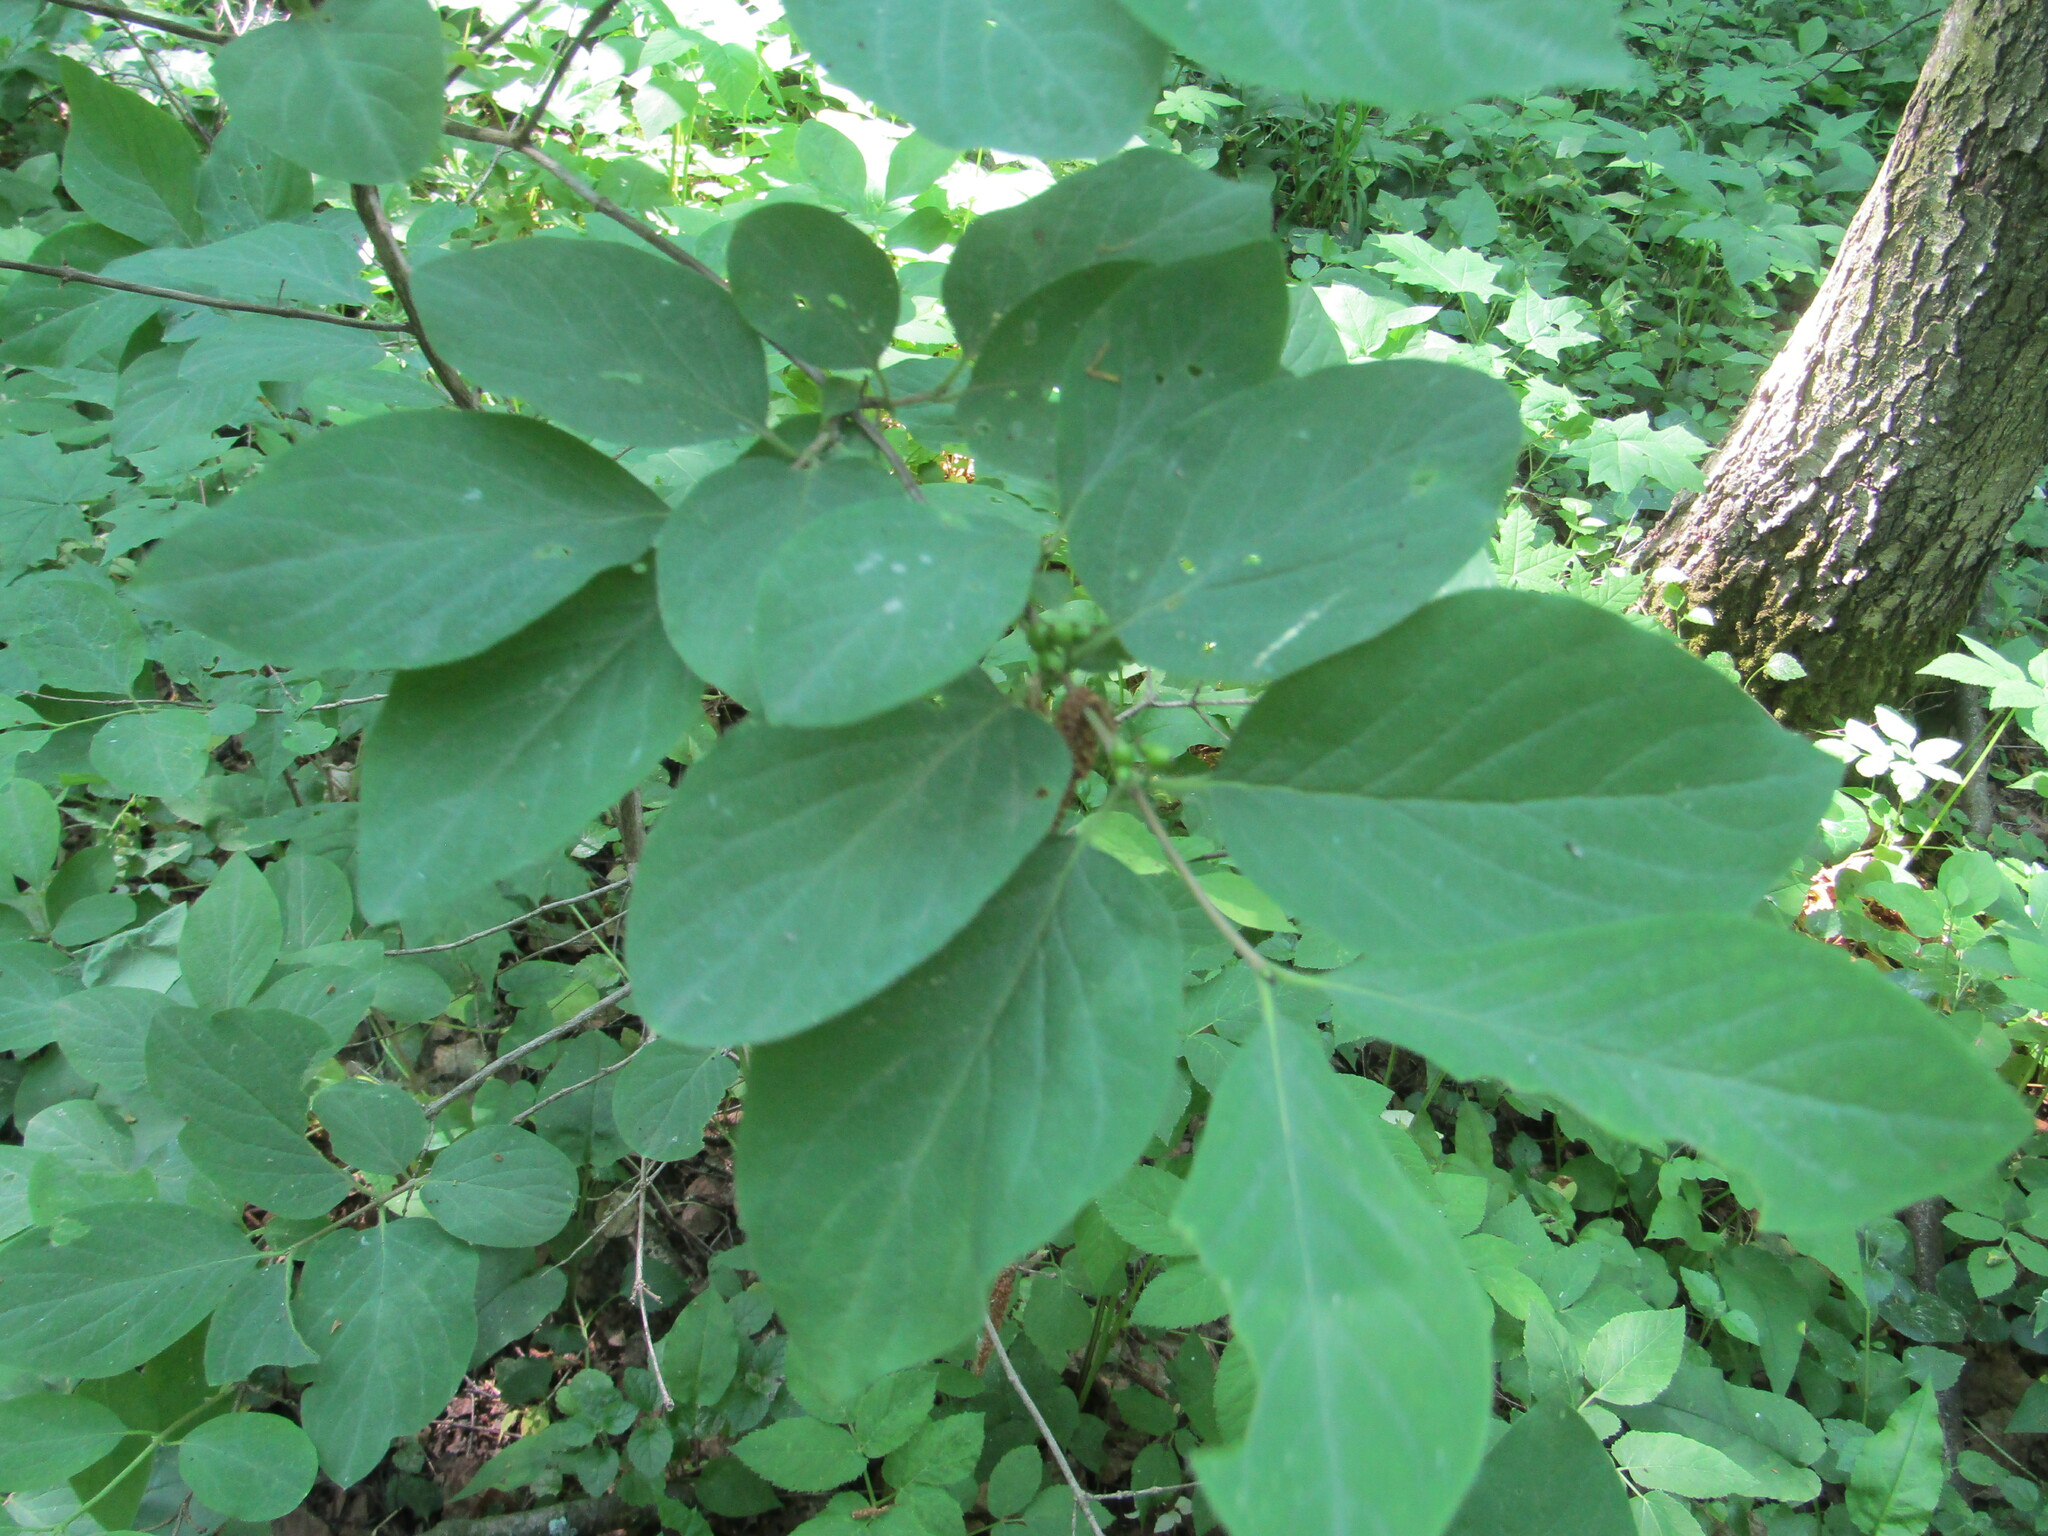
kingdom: Plantae
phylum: Tracheophyta
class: Magnoliopsida
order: Dipsacales
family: Caprifoliaceae
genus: Lonicera
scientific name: Lonicera xylosteum
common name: Fly honeysuckle
